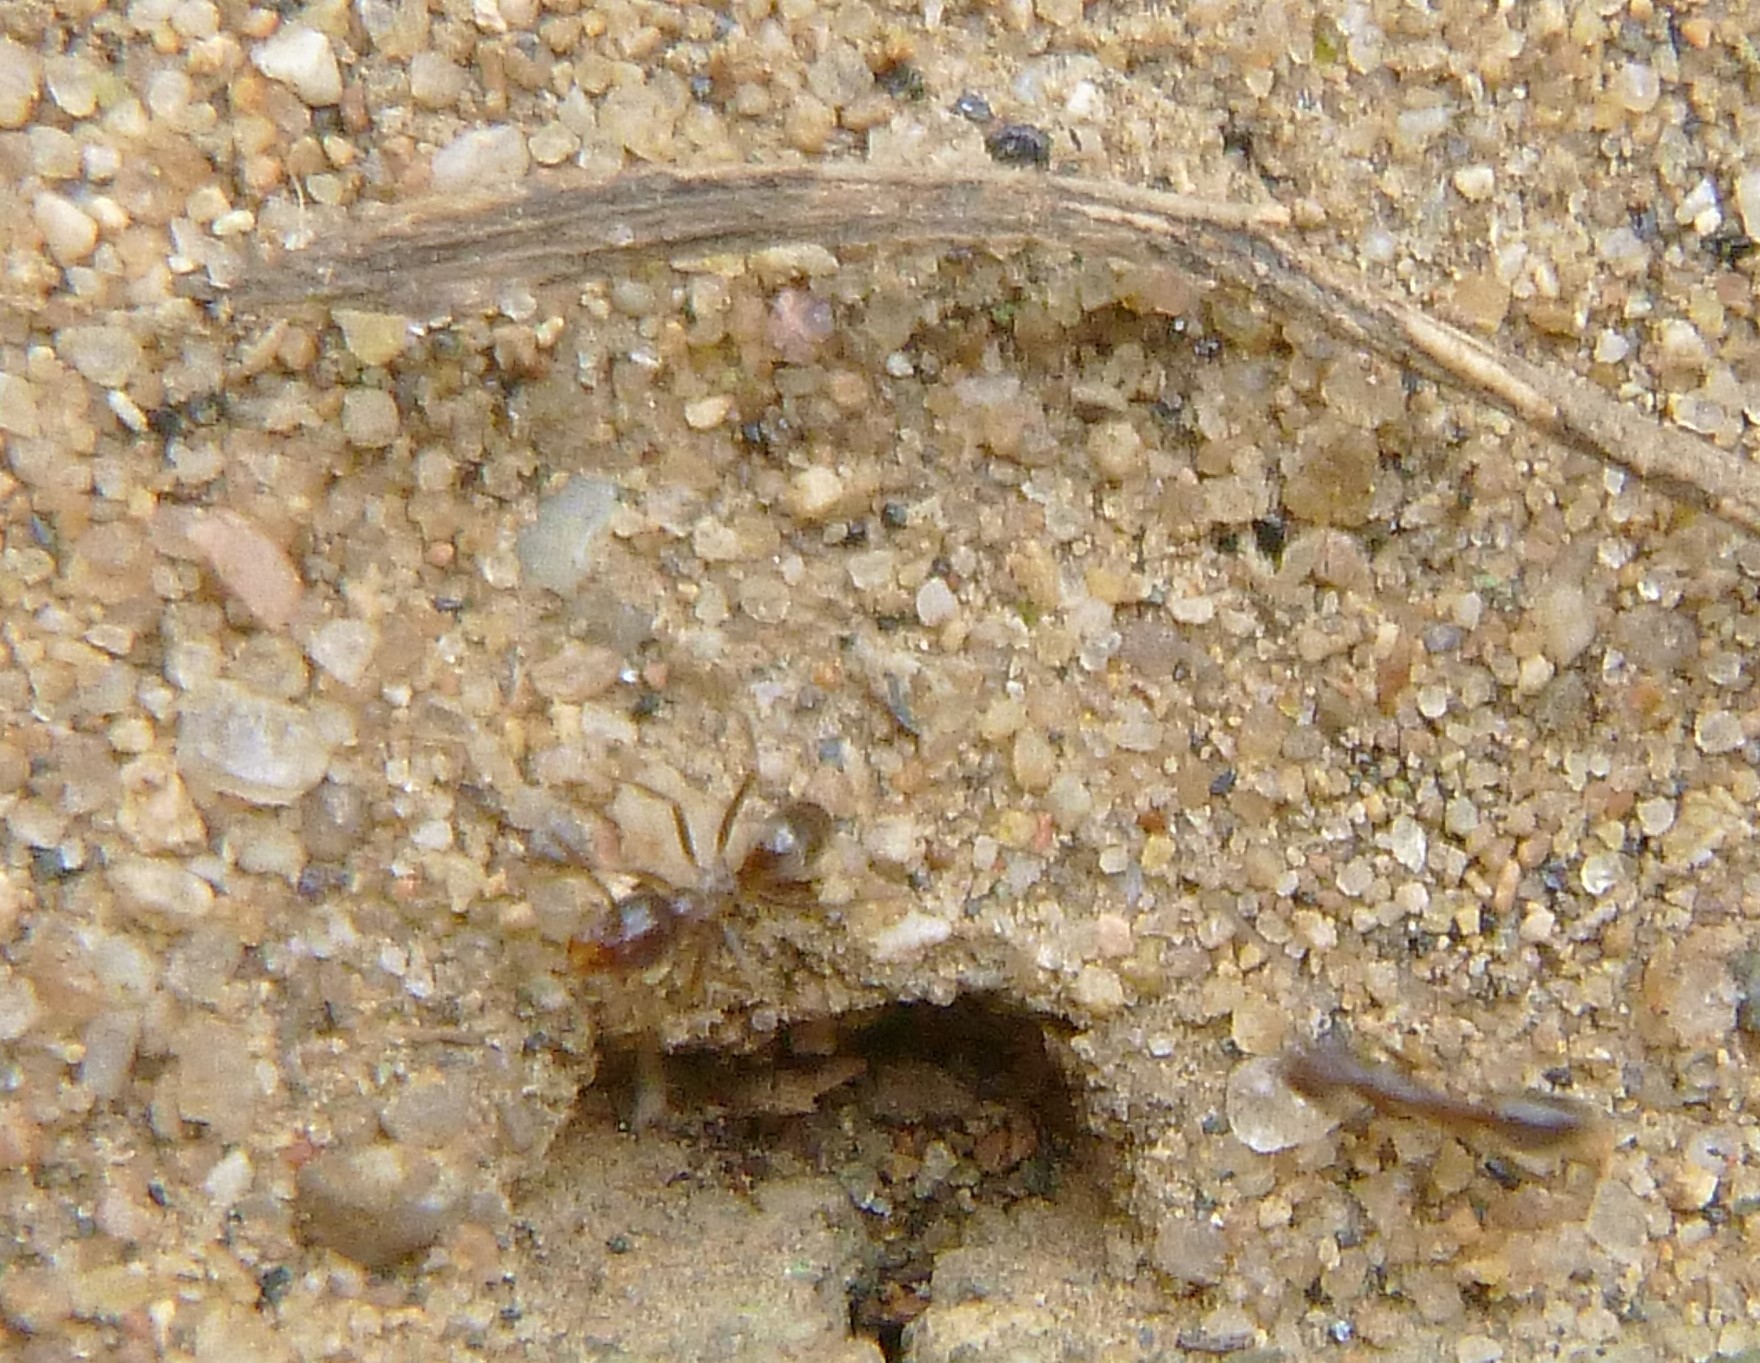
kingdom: Animalia
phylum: Arthropoda
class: Insecta
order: Hymenoptera
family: Formicidae
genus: Linepithema
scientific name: Linepithema humile
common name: Argentine ant
